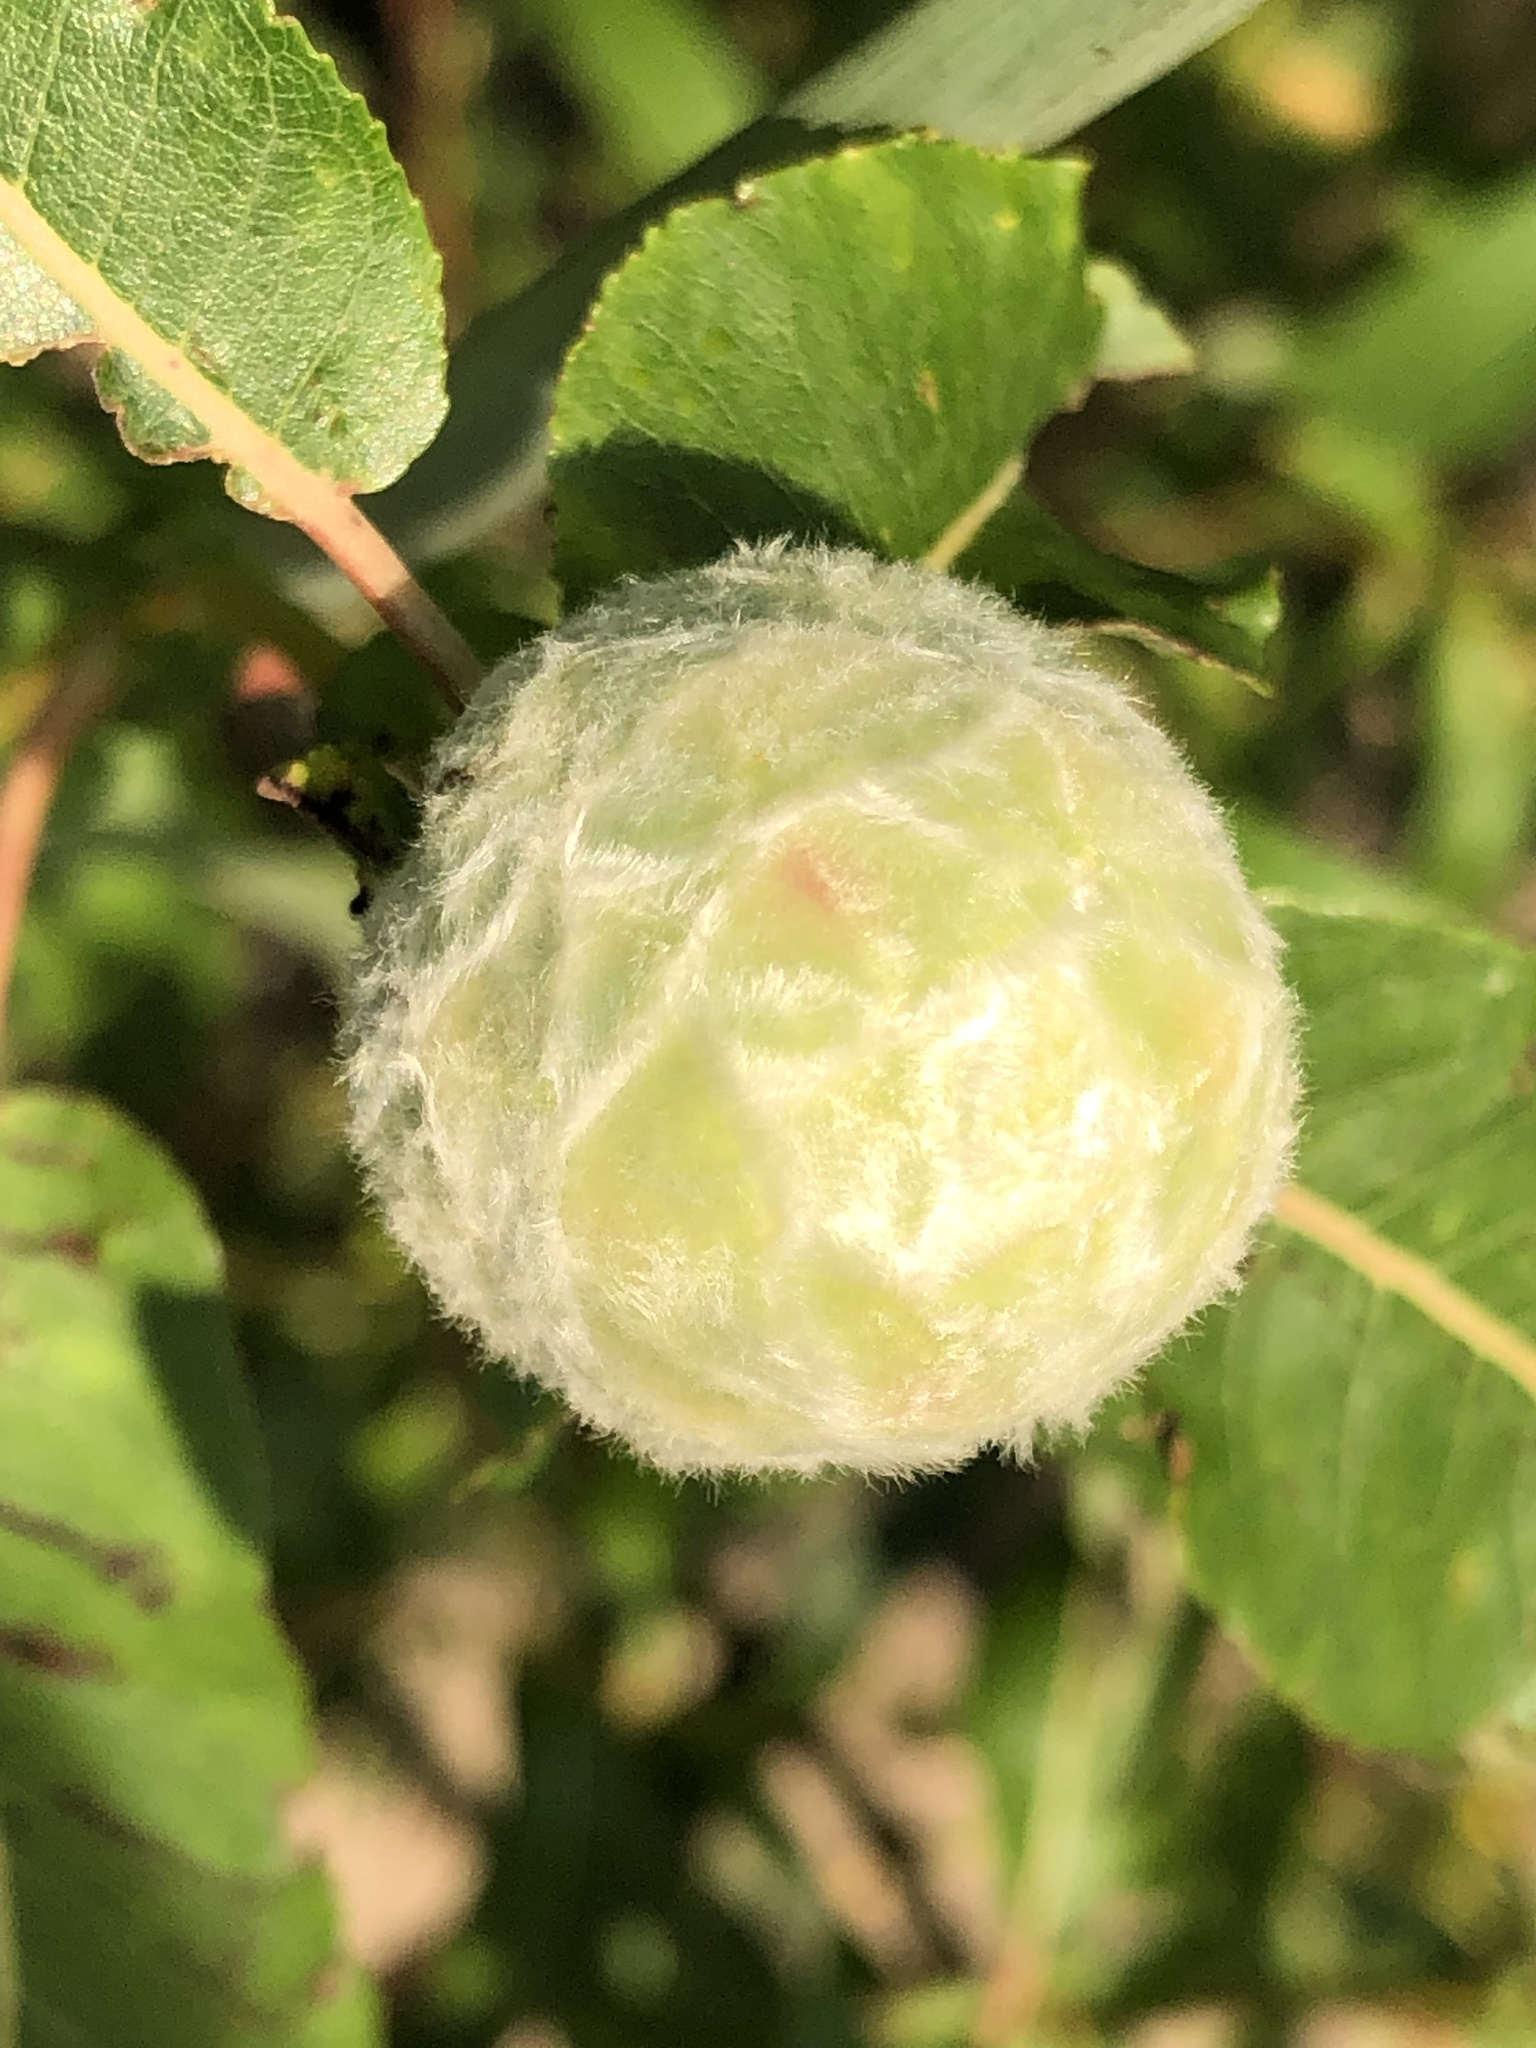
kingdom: Animalia
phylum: Arthropoda
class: Insecta
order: Diptera
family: Cecidomyiidae
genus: Rabdophaga
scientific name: Rabdophaga strobiloides
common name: Willow pinecone gall midge
